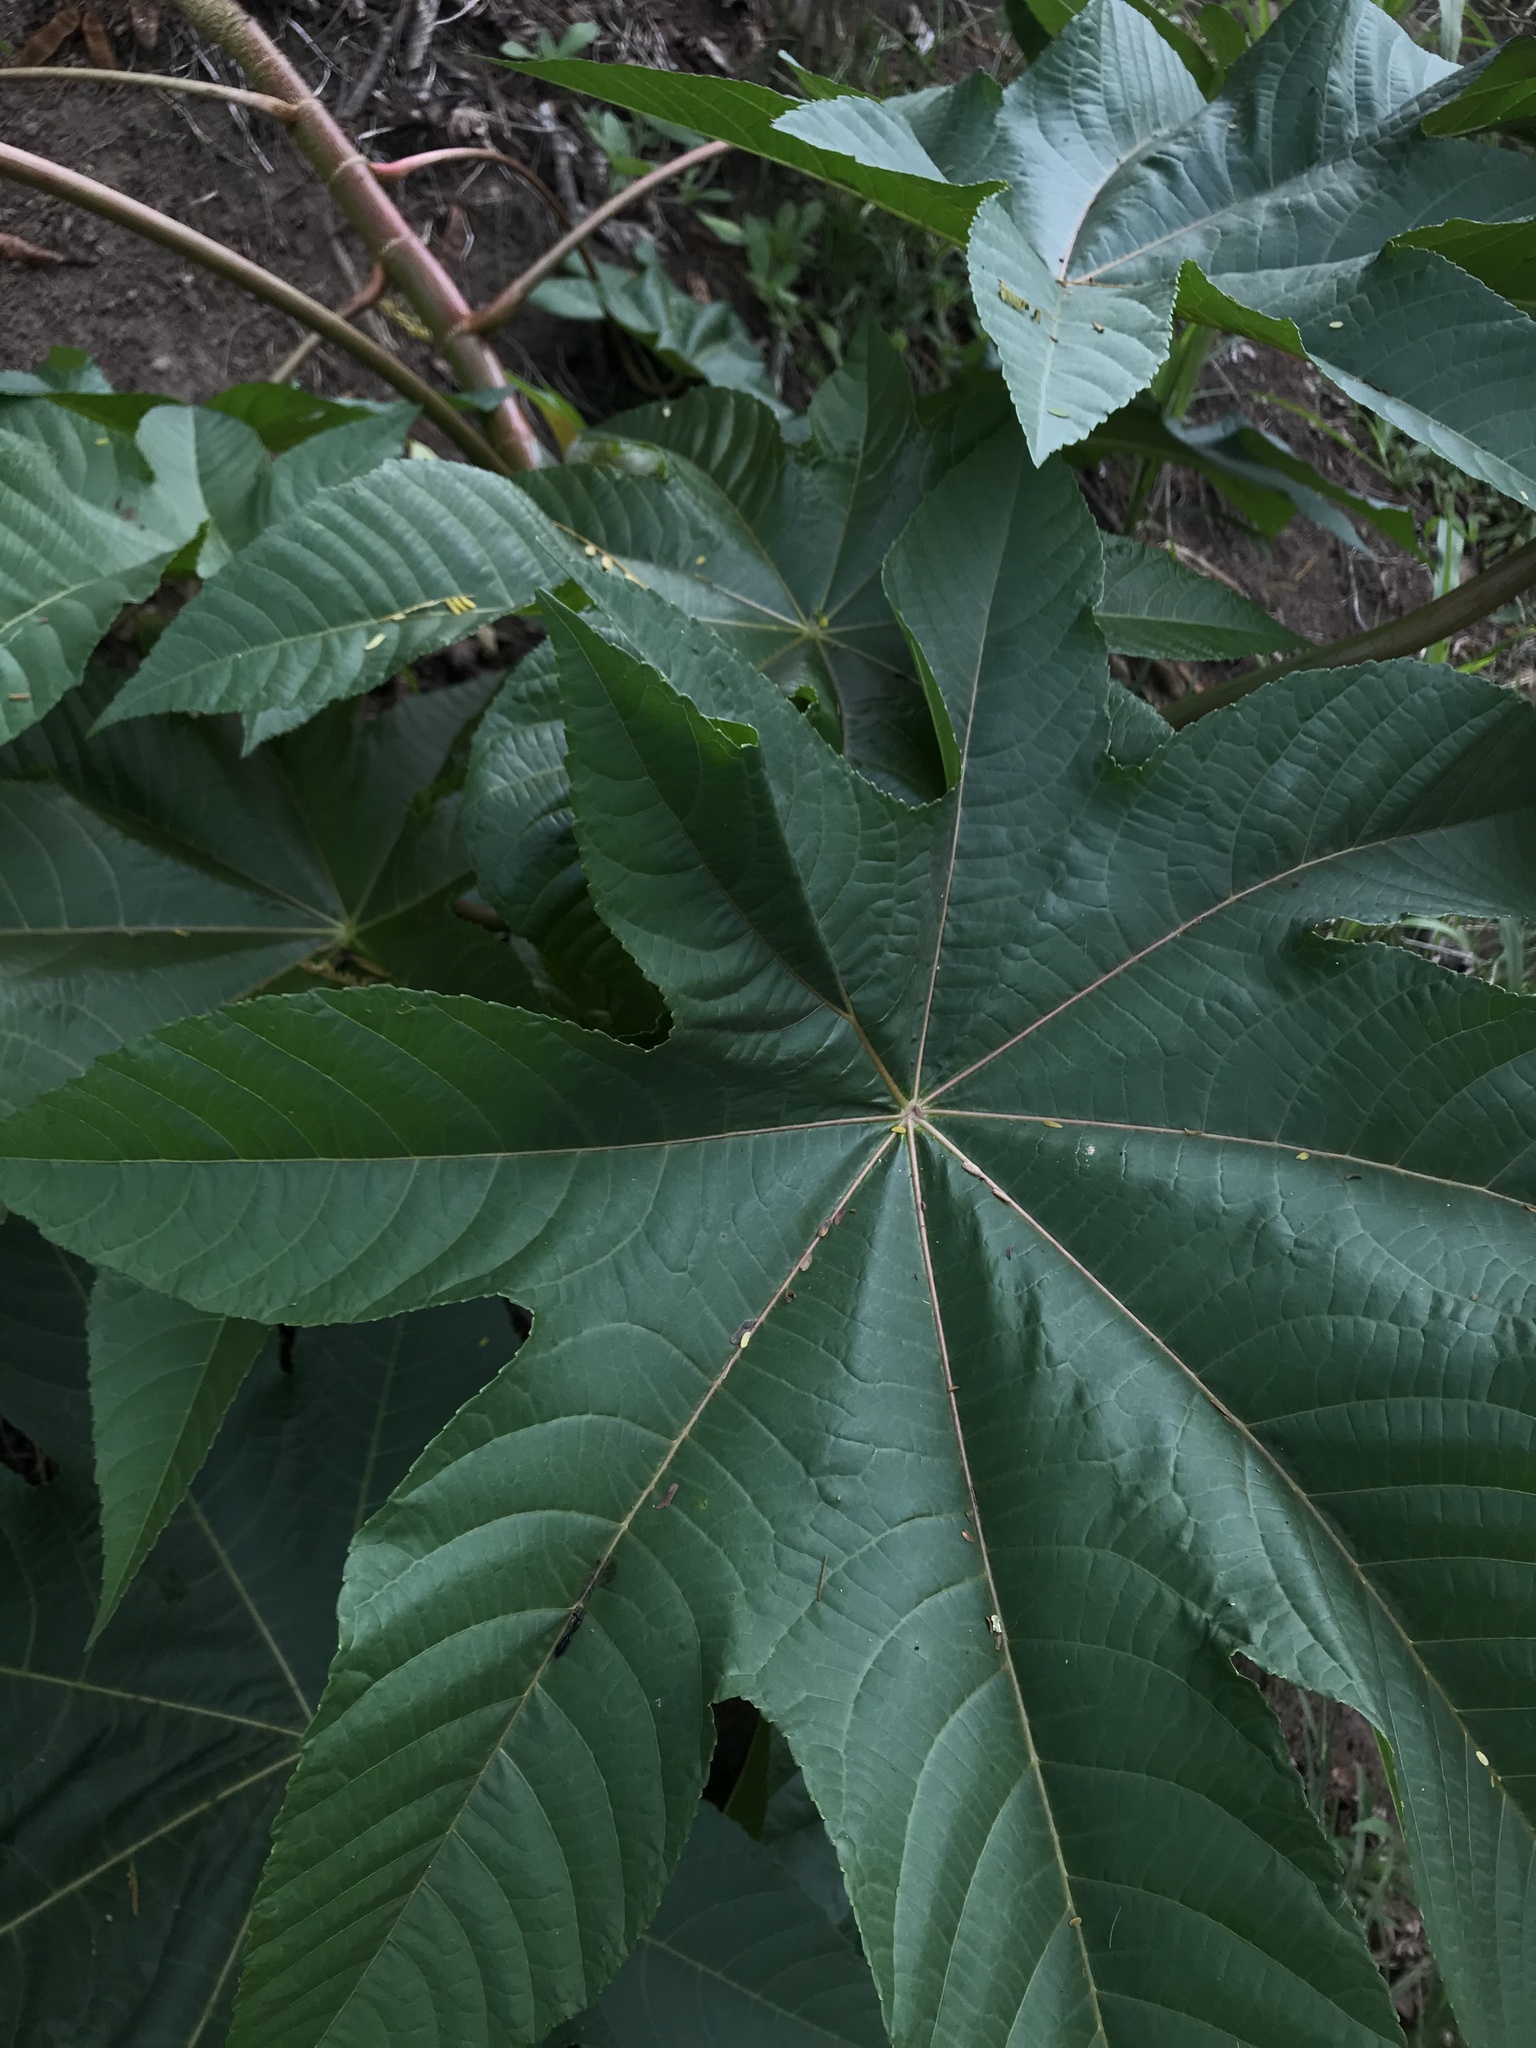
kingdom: Plantae
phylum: Tracheophyta
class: Magnoliopsida
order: Malpighiales
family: Euphorbiaceae
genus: Ricinus
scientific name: Ricinus communis
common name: Castor-oil-plant
